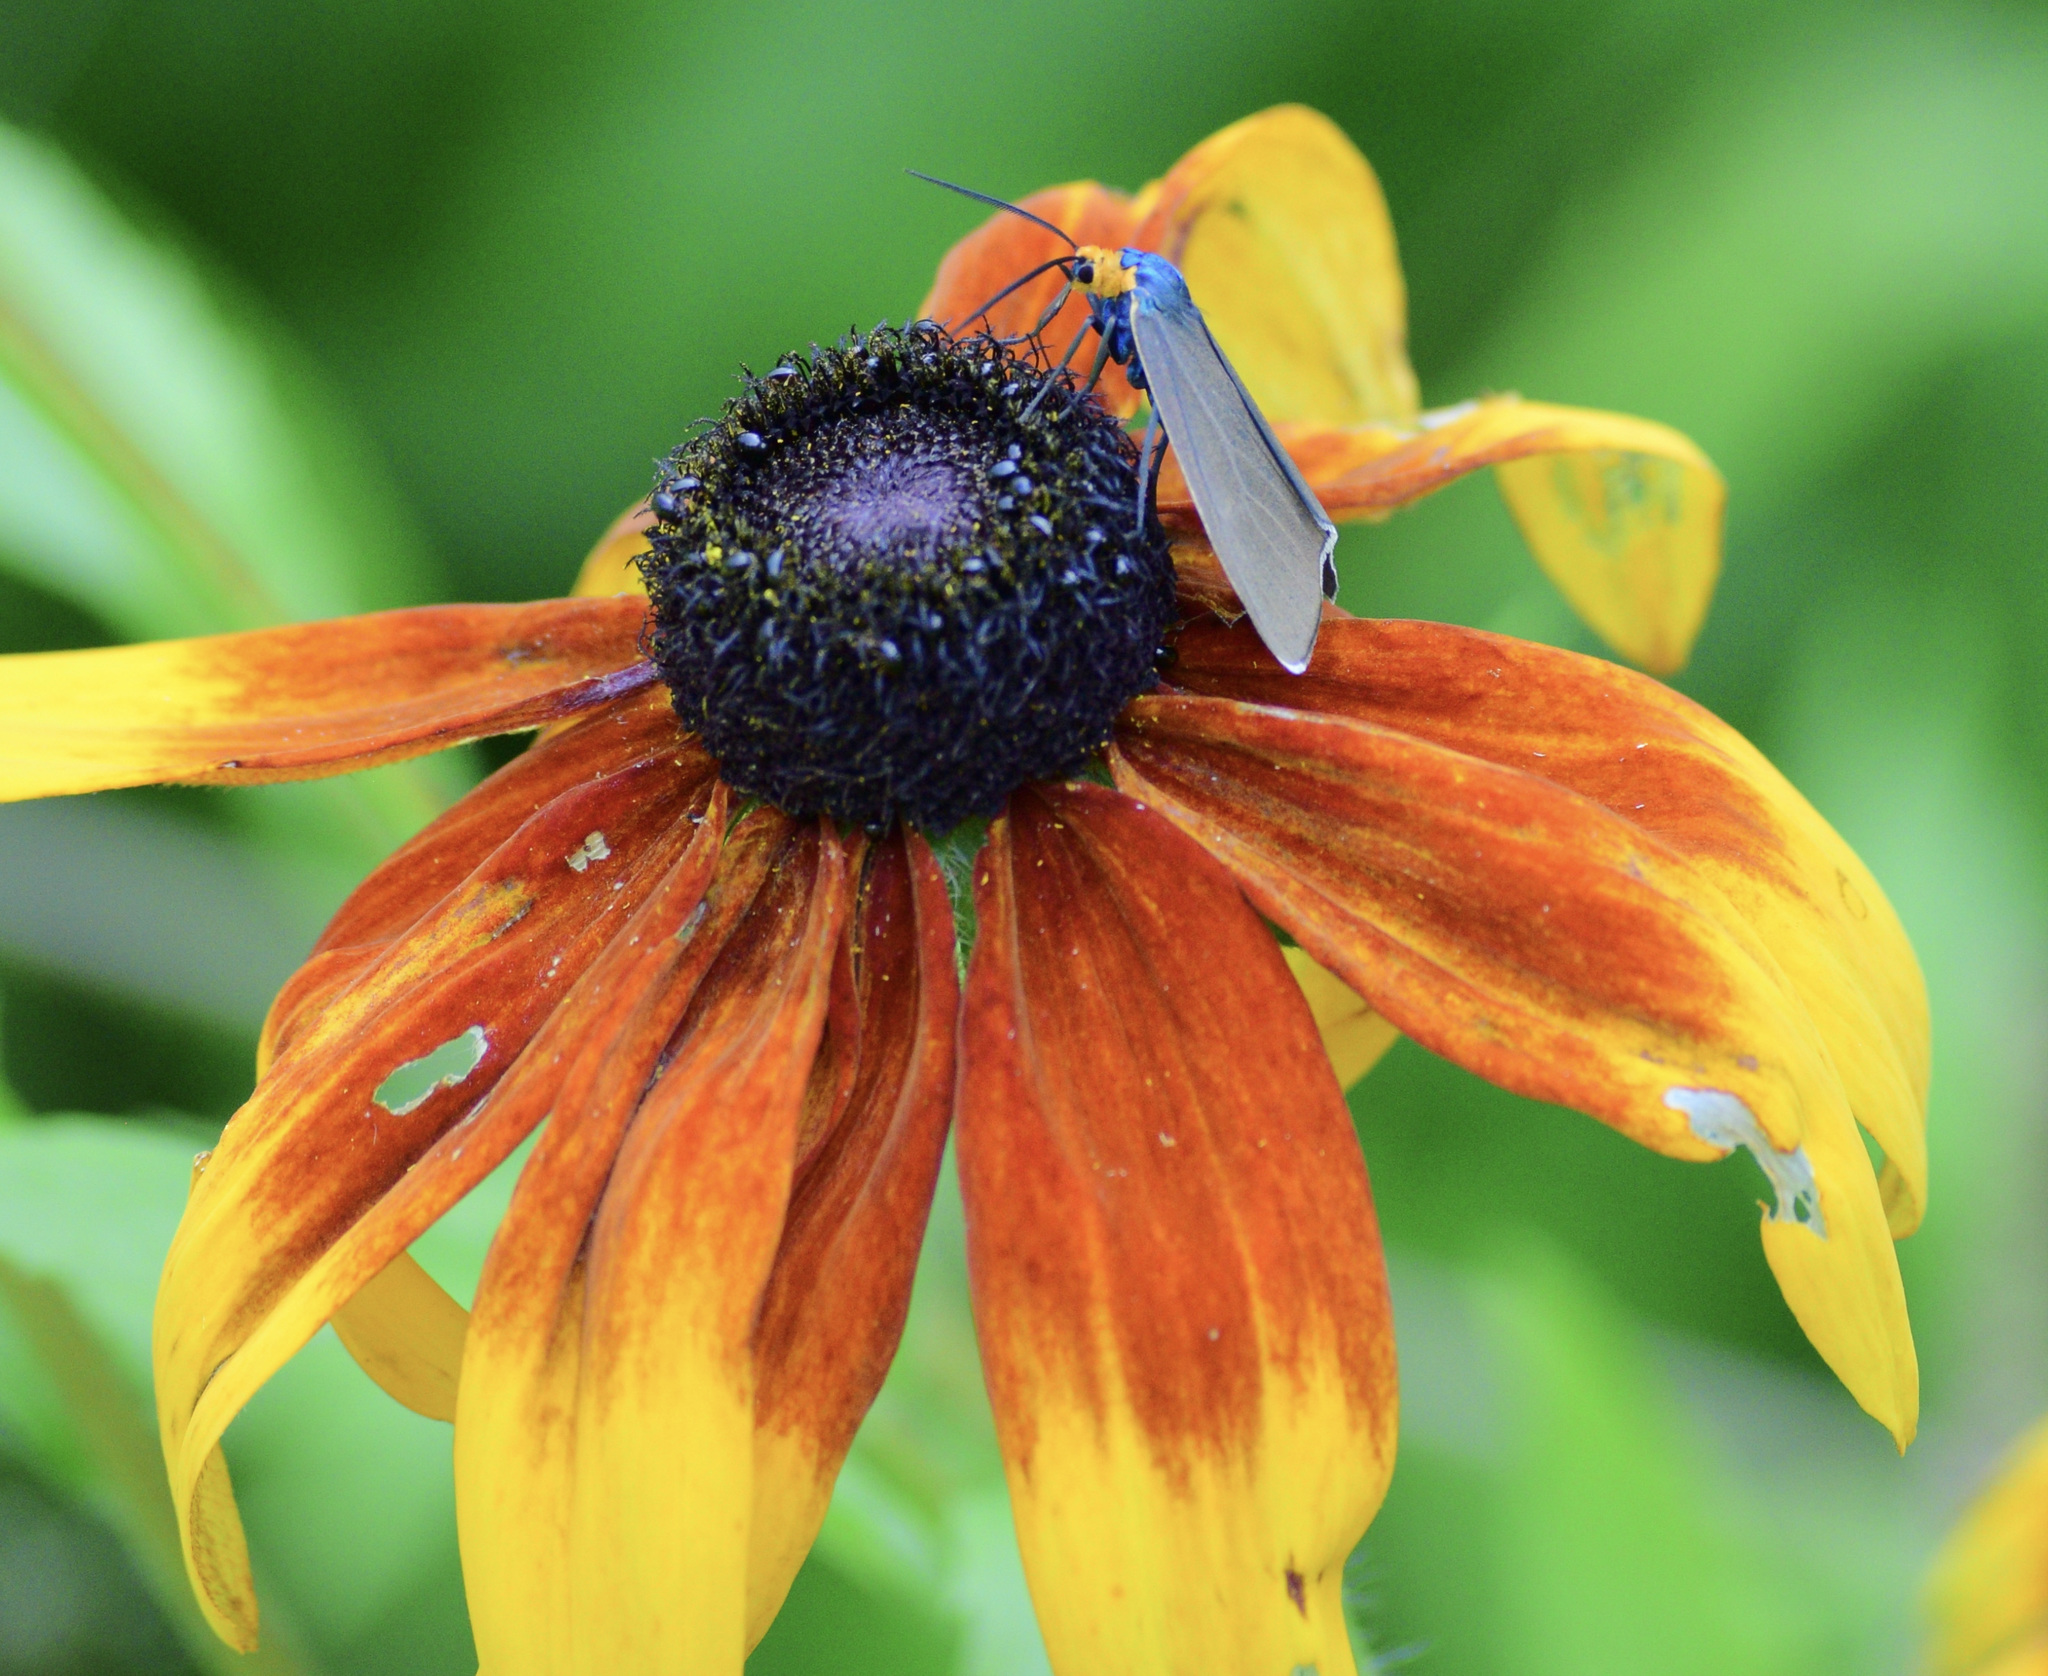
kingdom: Animalia
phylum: Arthropoda
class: Insecta
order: Lepidoptera
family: Erebidae
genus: Ctenucha
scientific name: Ctenucha virginica
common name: Virginia ctenucha moth
